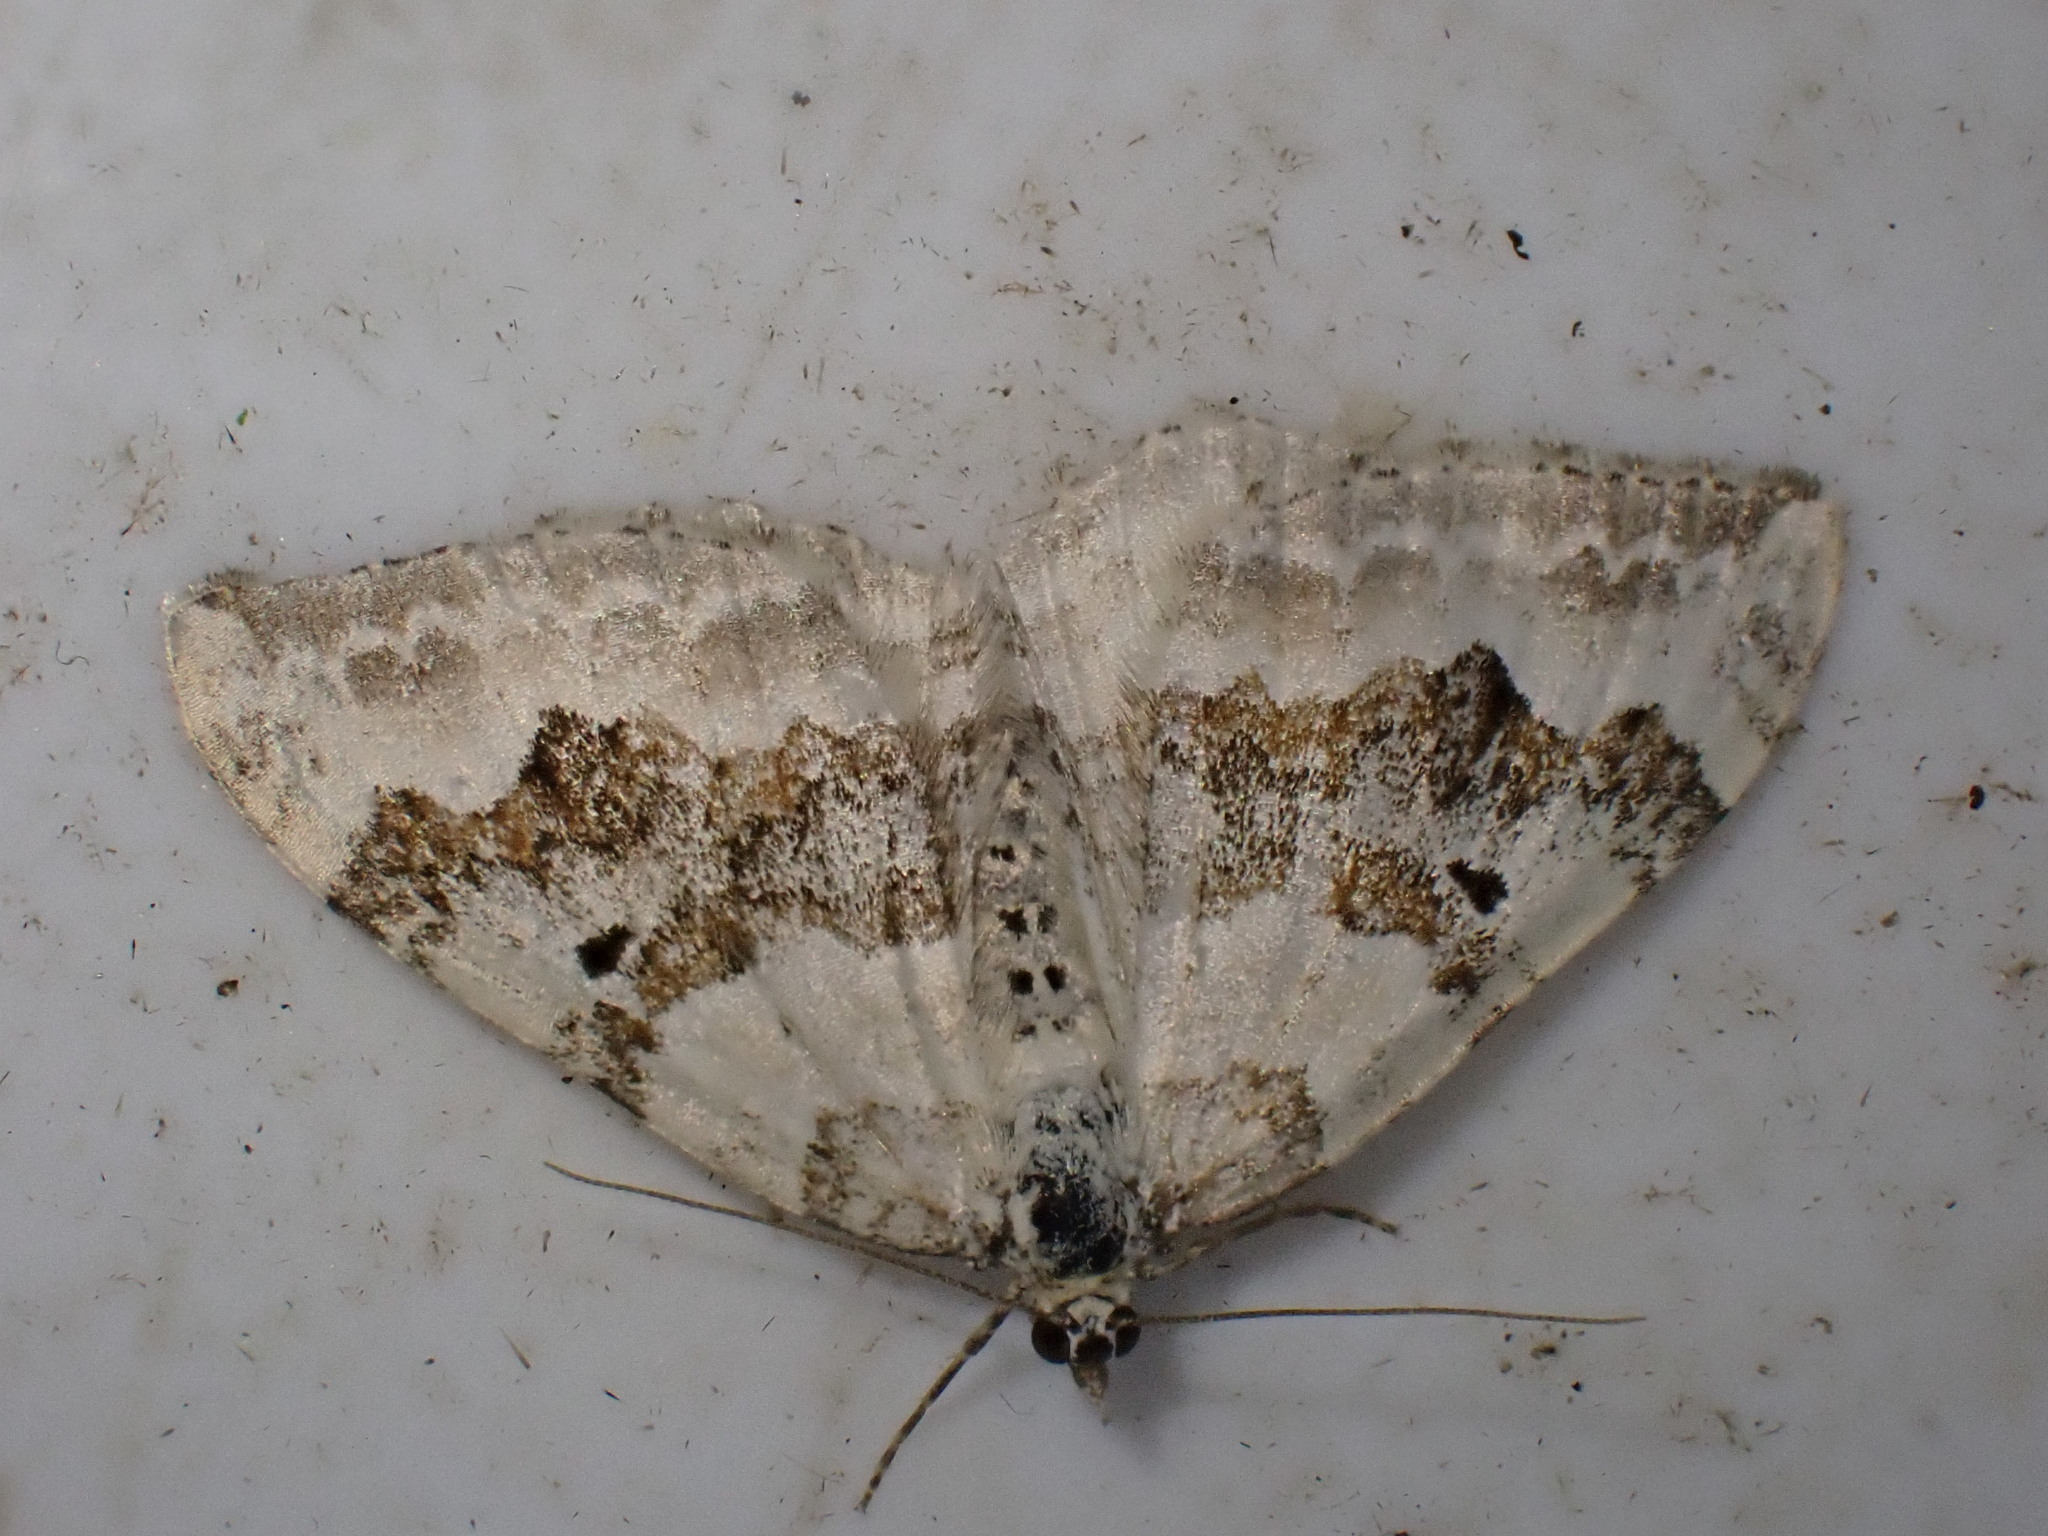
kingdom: Animalia
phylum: Arthropoda
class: Insecta
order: Lepidoptera
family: Geometridae
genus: Xanthorhoe
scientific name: Xanthorhoe montanata
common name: Silver-ground carpet
